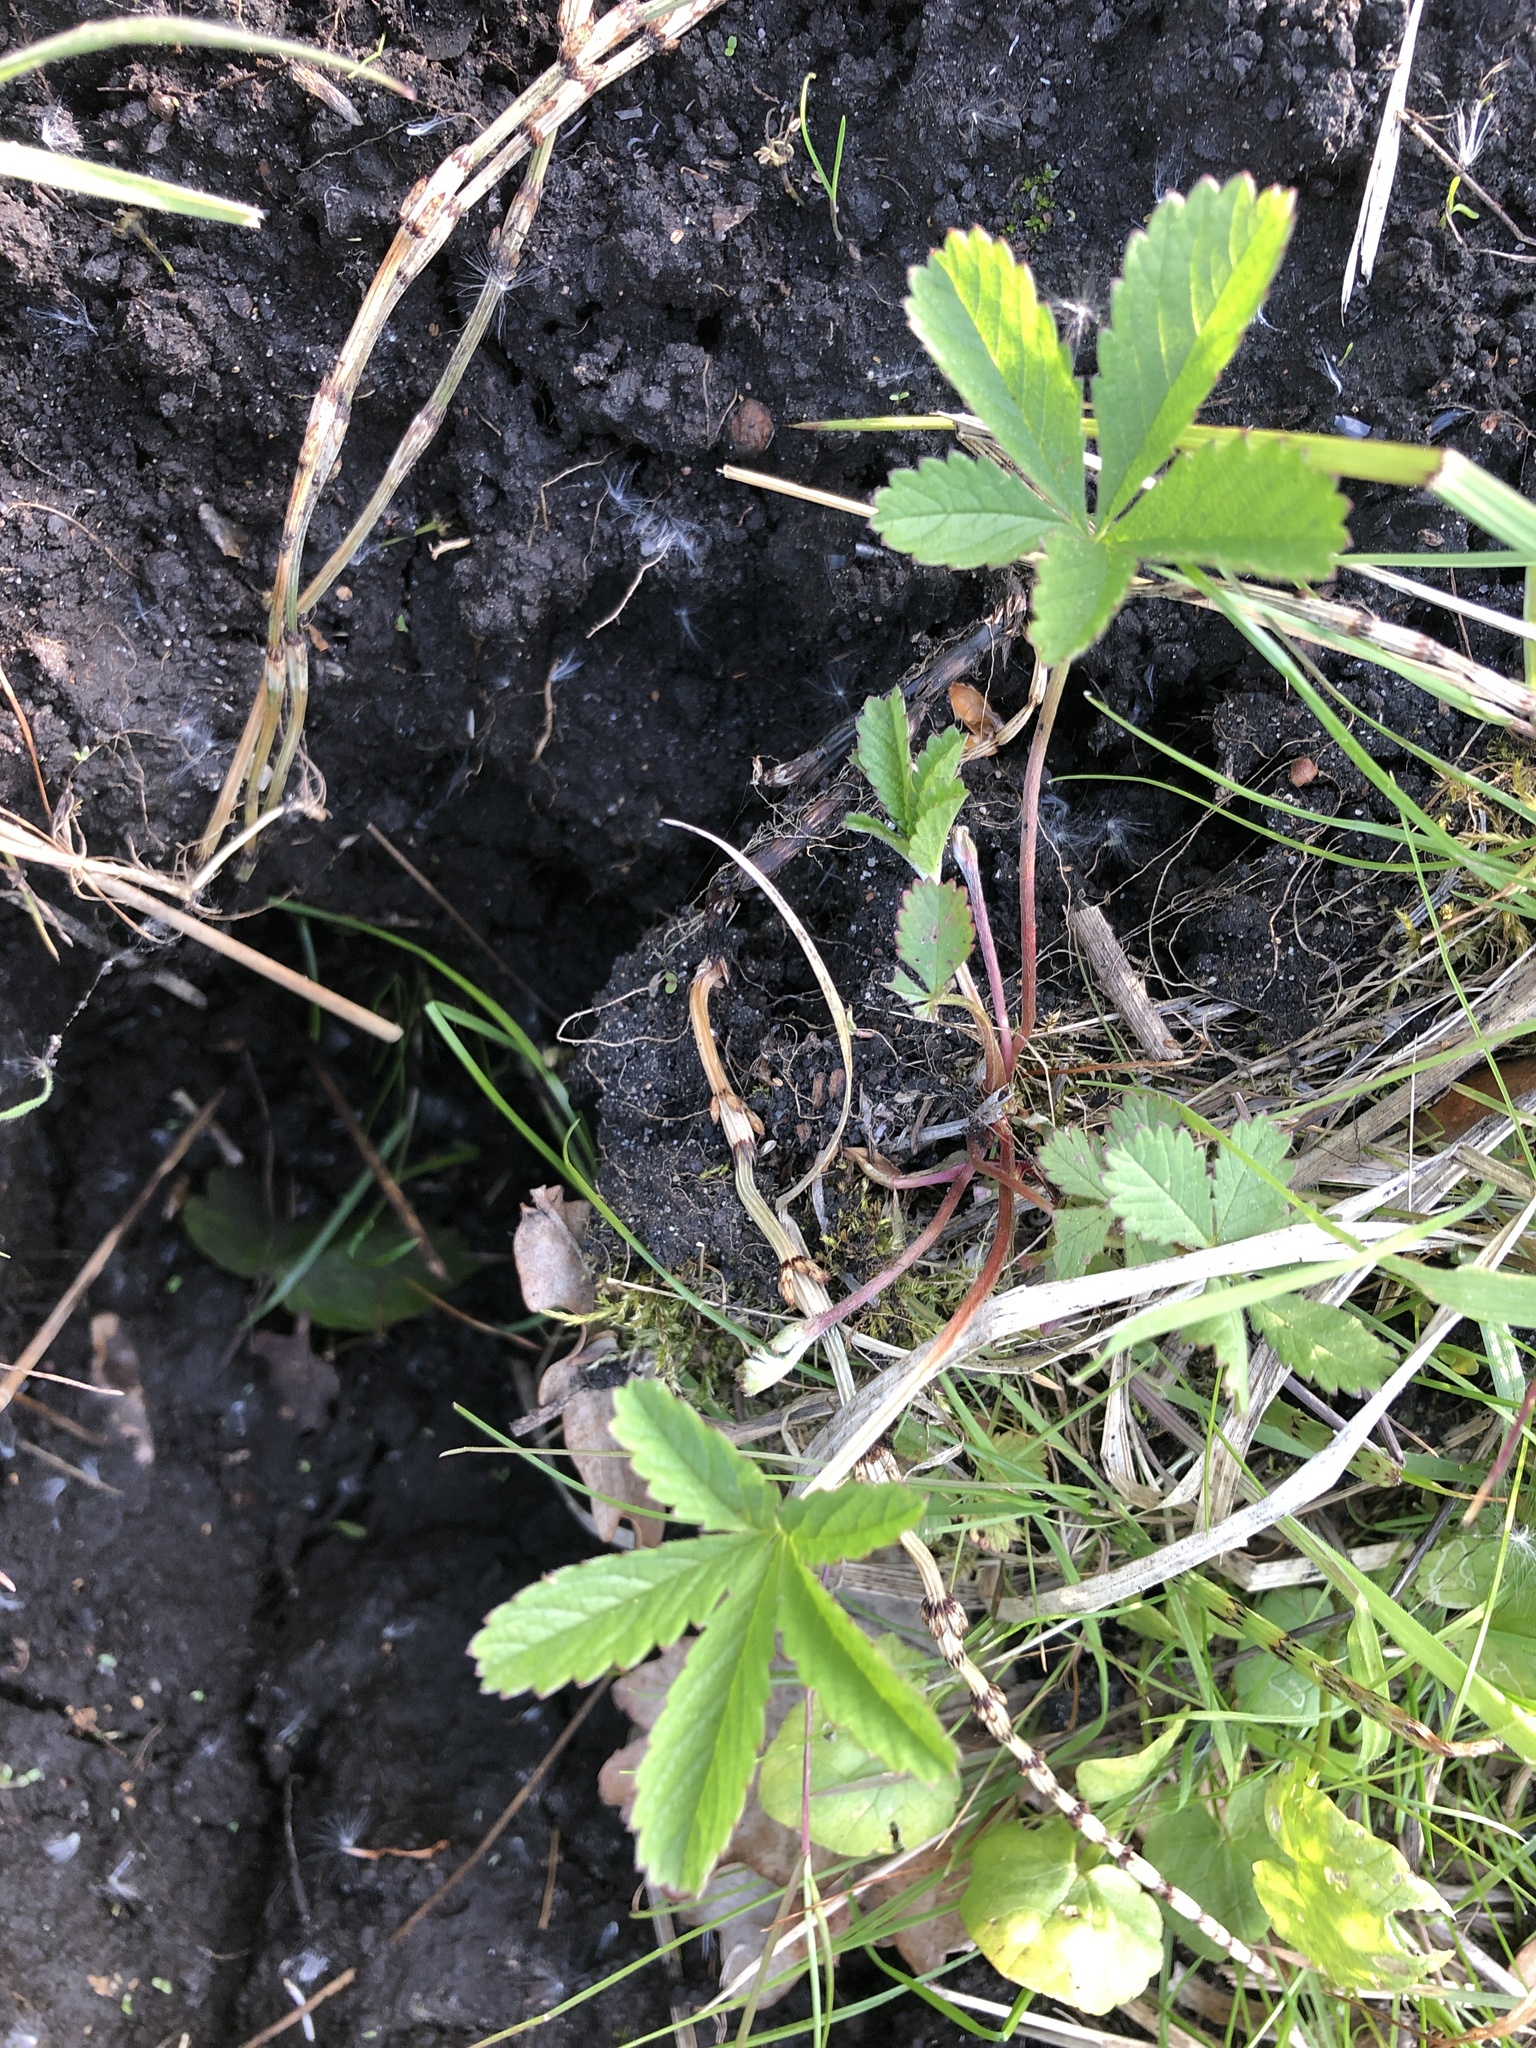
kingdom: Plantae
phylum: Tracheophyta
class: Magnoliopsida
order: Rosales
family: Rosaceae
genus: Potentilla
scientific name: Potentilla reptans
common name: Creeping cinquefoil
